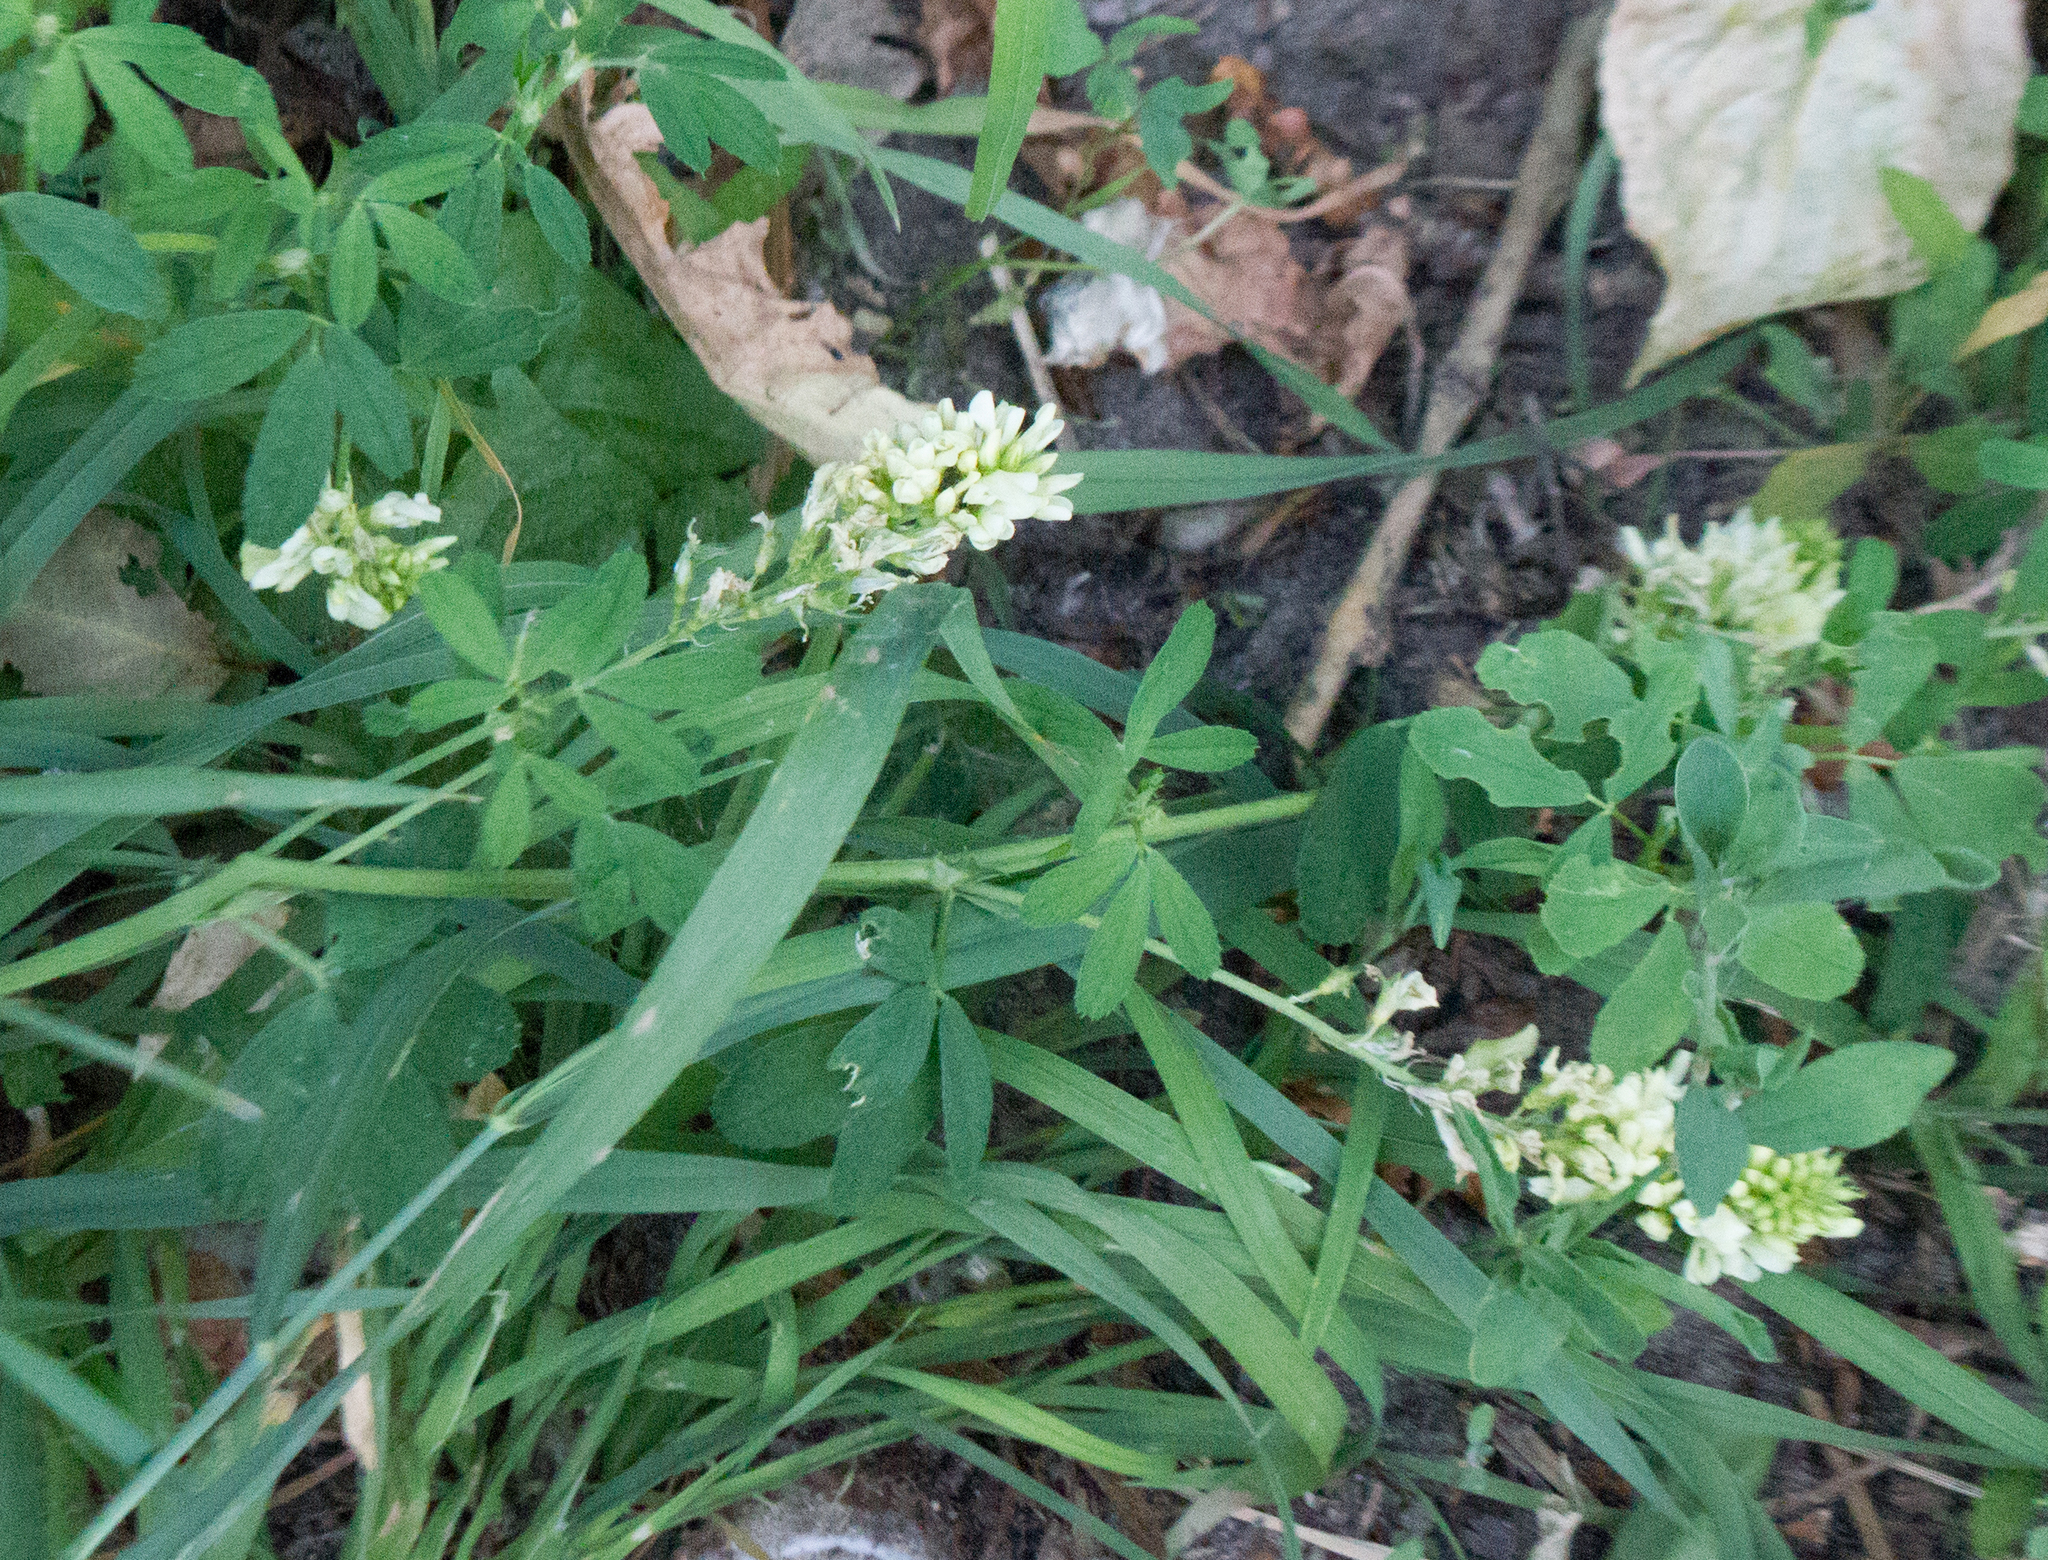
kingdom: Plantae
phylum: Tracheophyta
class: Magnoliopsida
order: Fabales
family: Fabaceae
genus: Melilotus
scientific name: Melilotus albus
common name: White melilot
